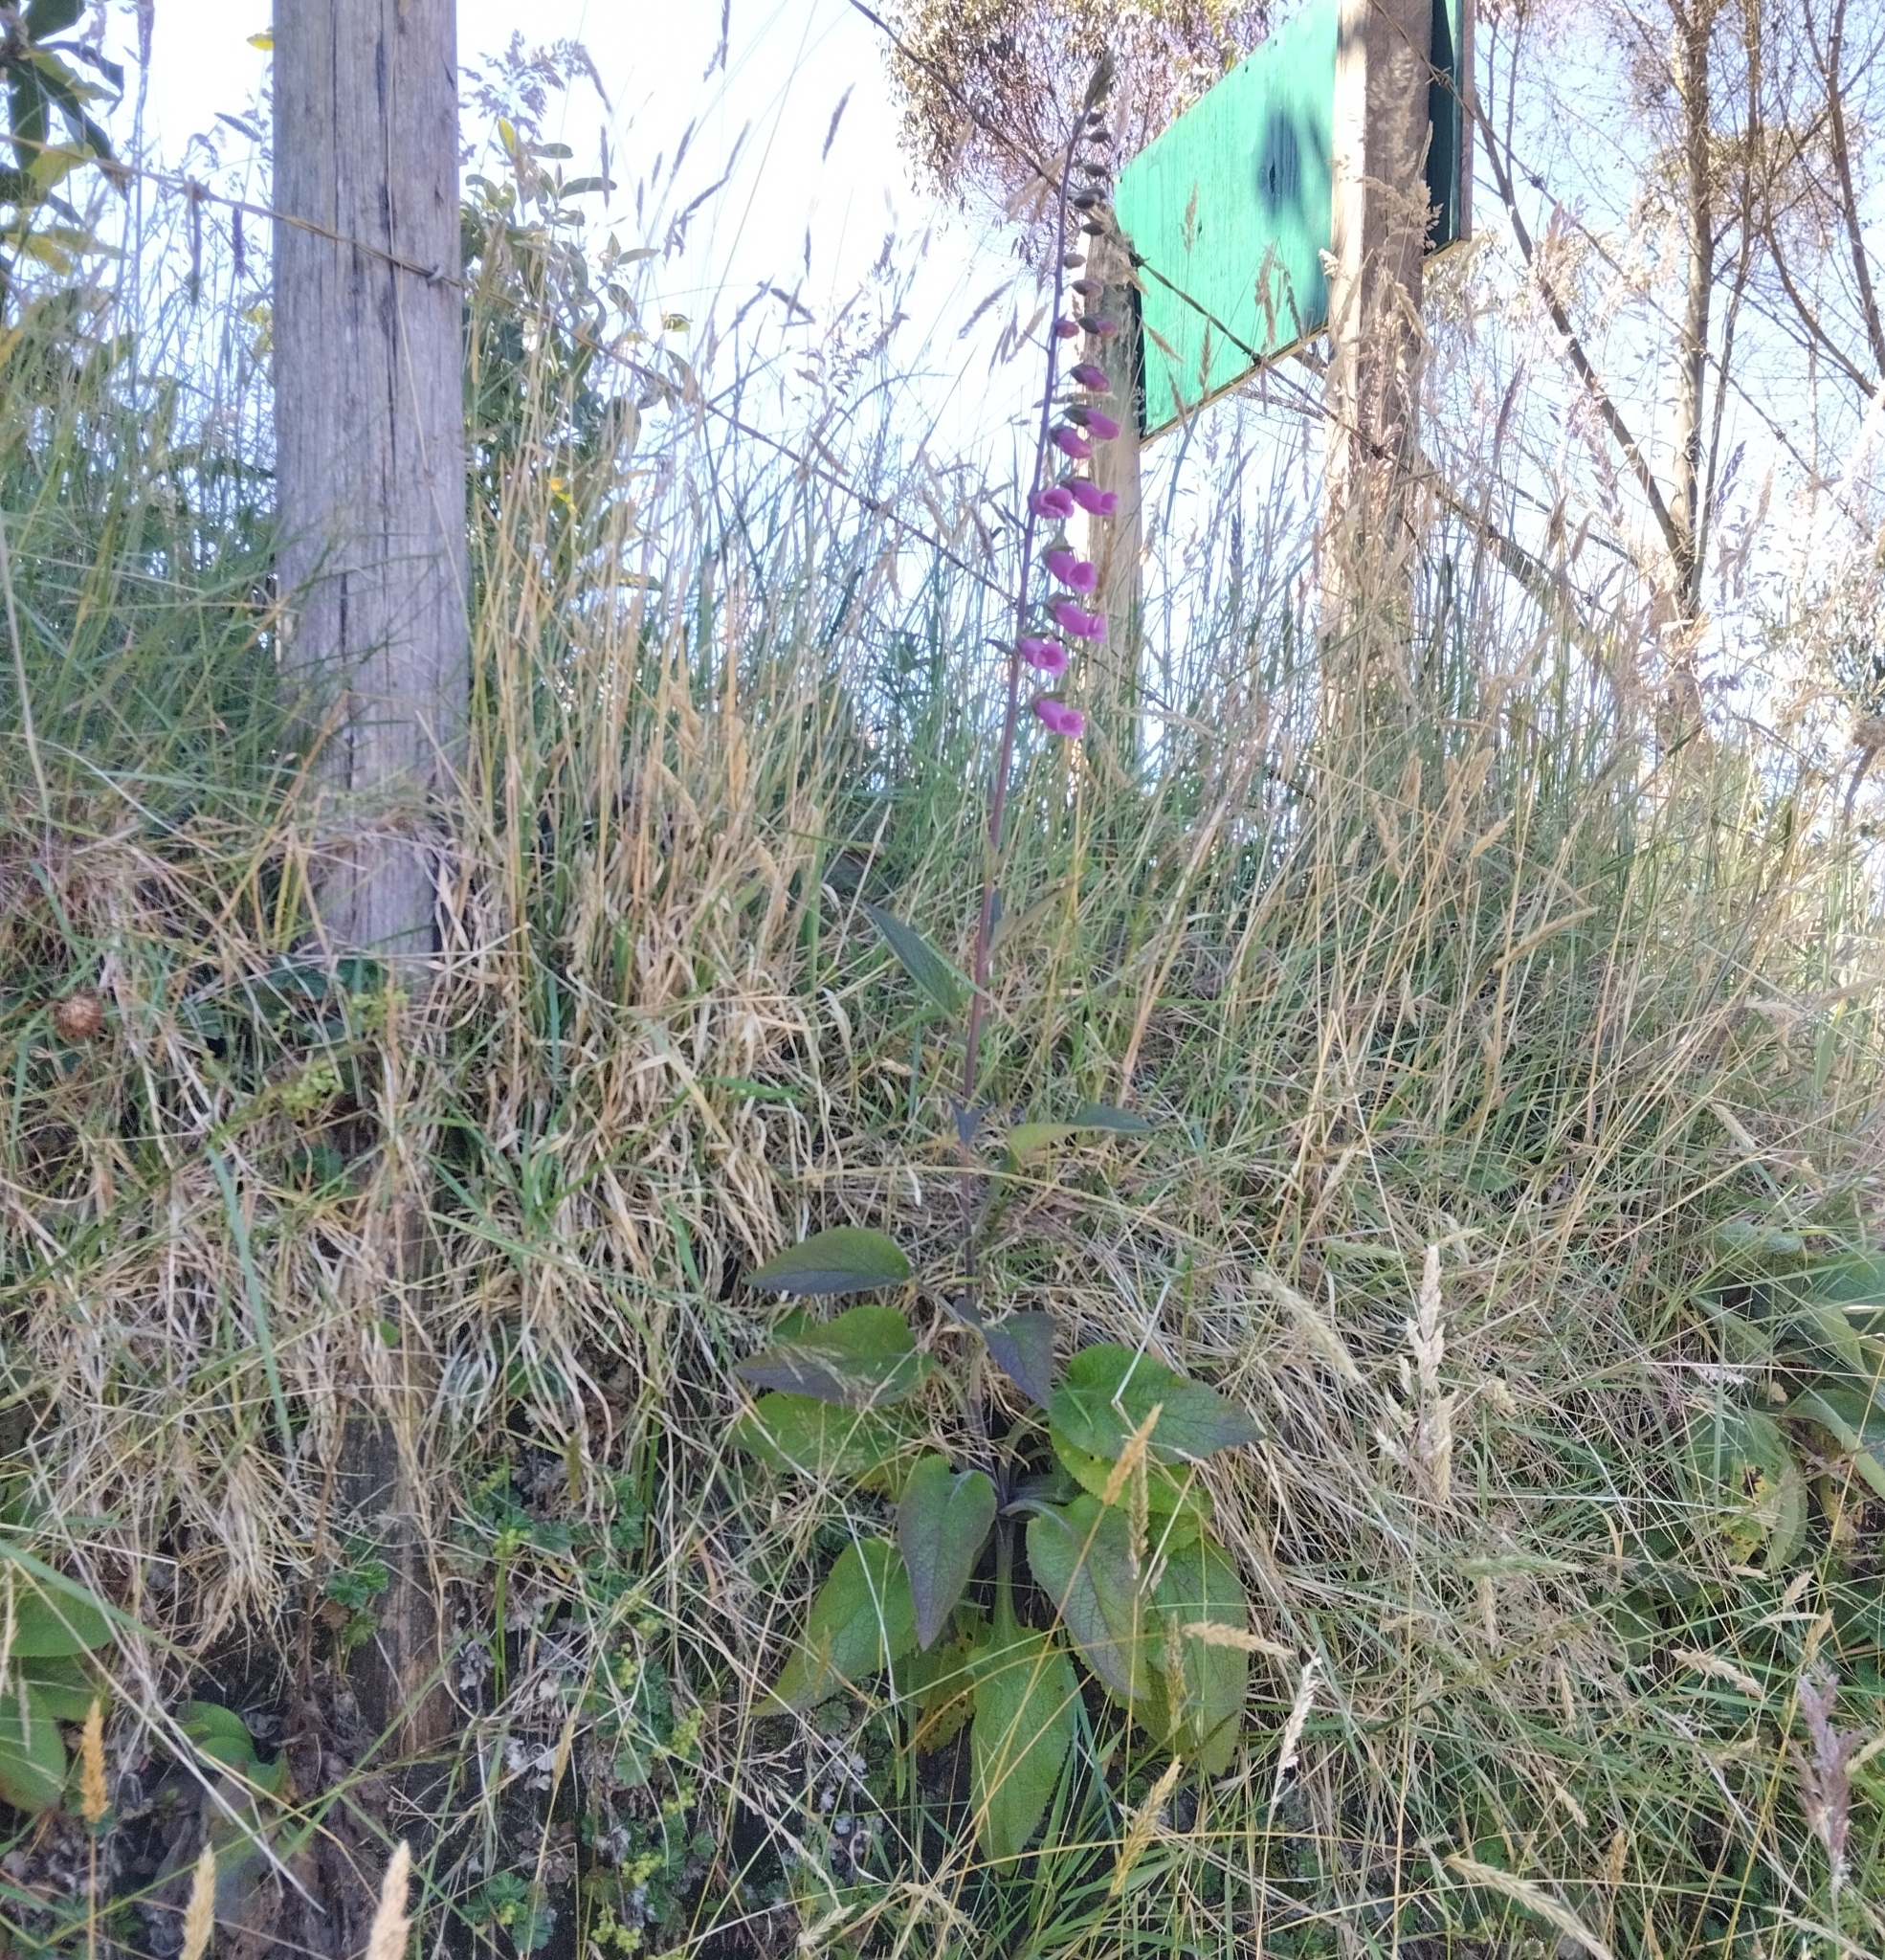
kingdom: Plantae
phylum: Tracheophyta
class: Magnoliopsida
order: Lamiales
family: Plantaginaceae
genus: Digitalis
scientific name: Digitalis purpurea
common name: Foxglove
